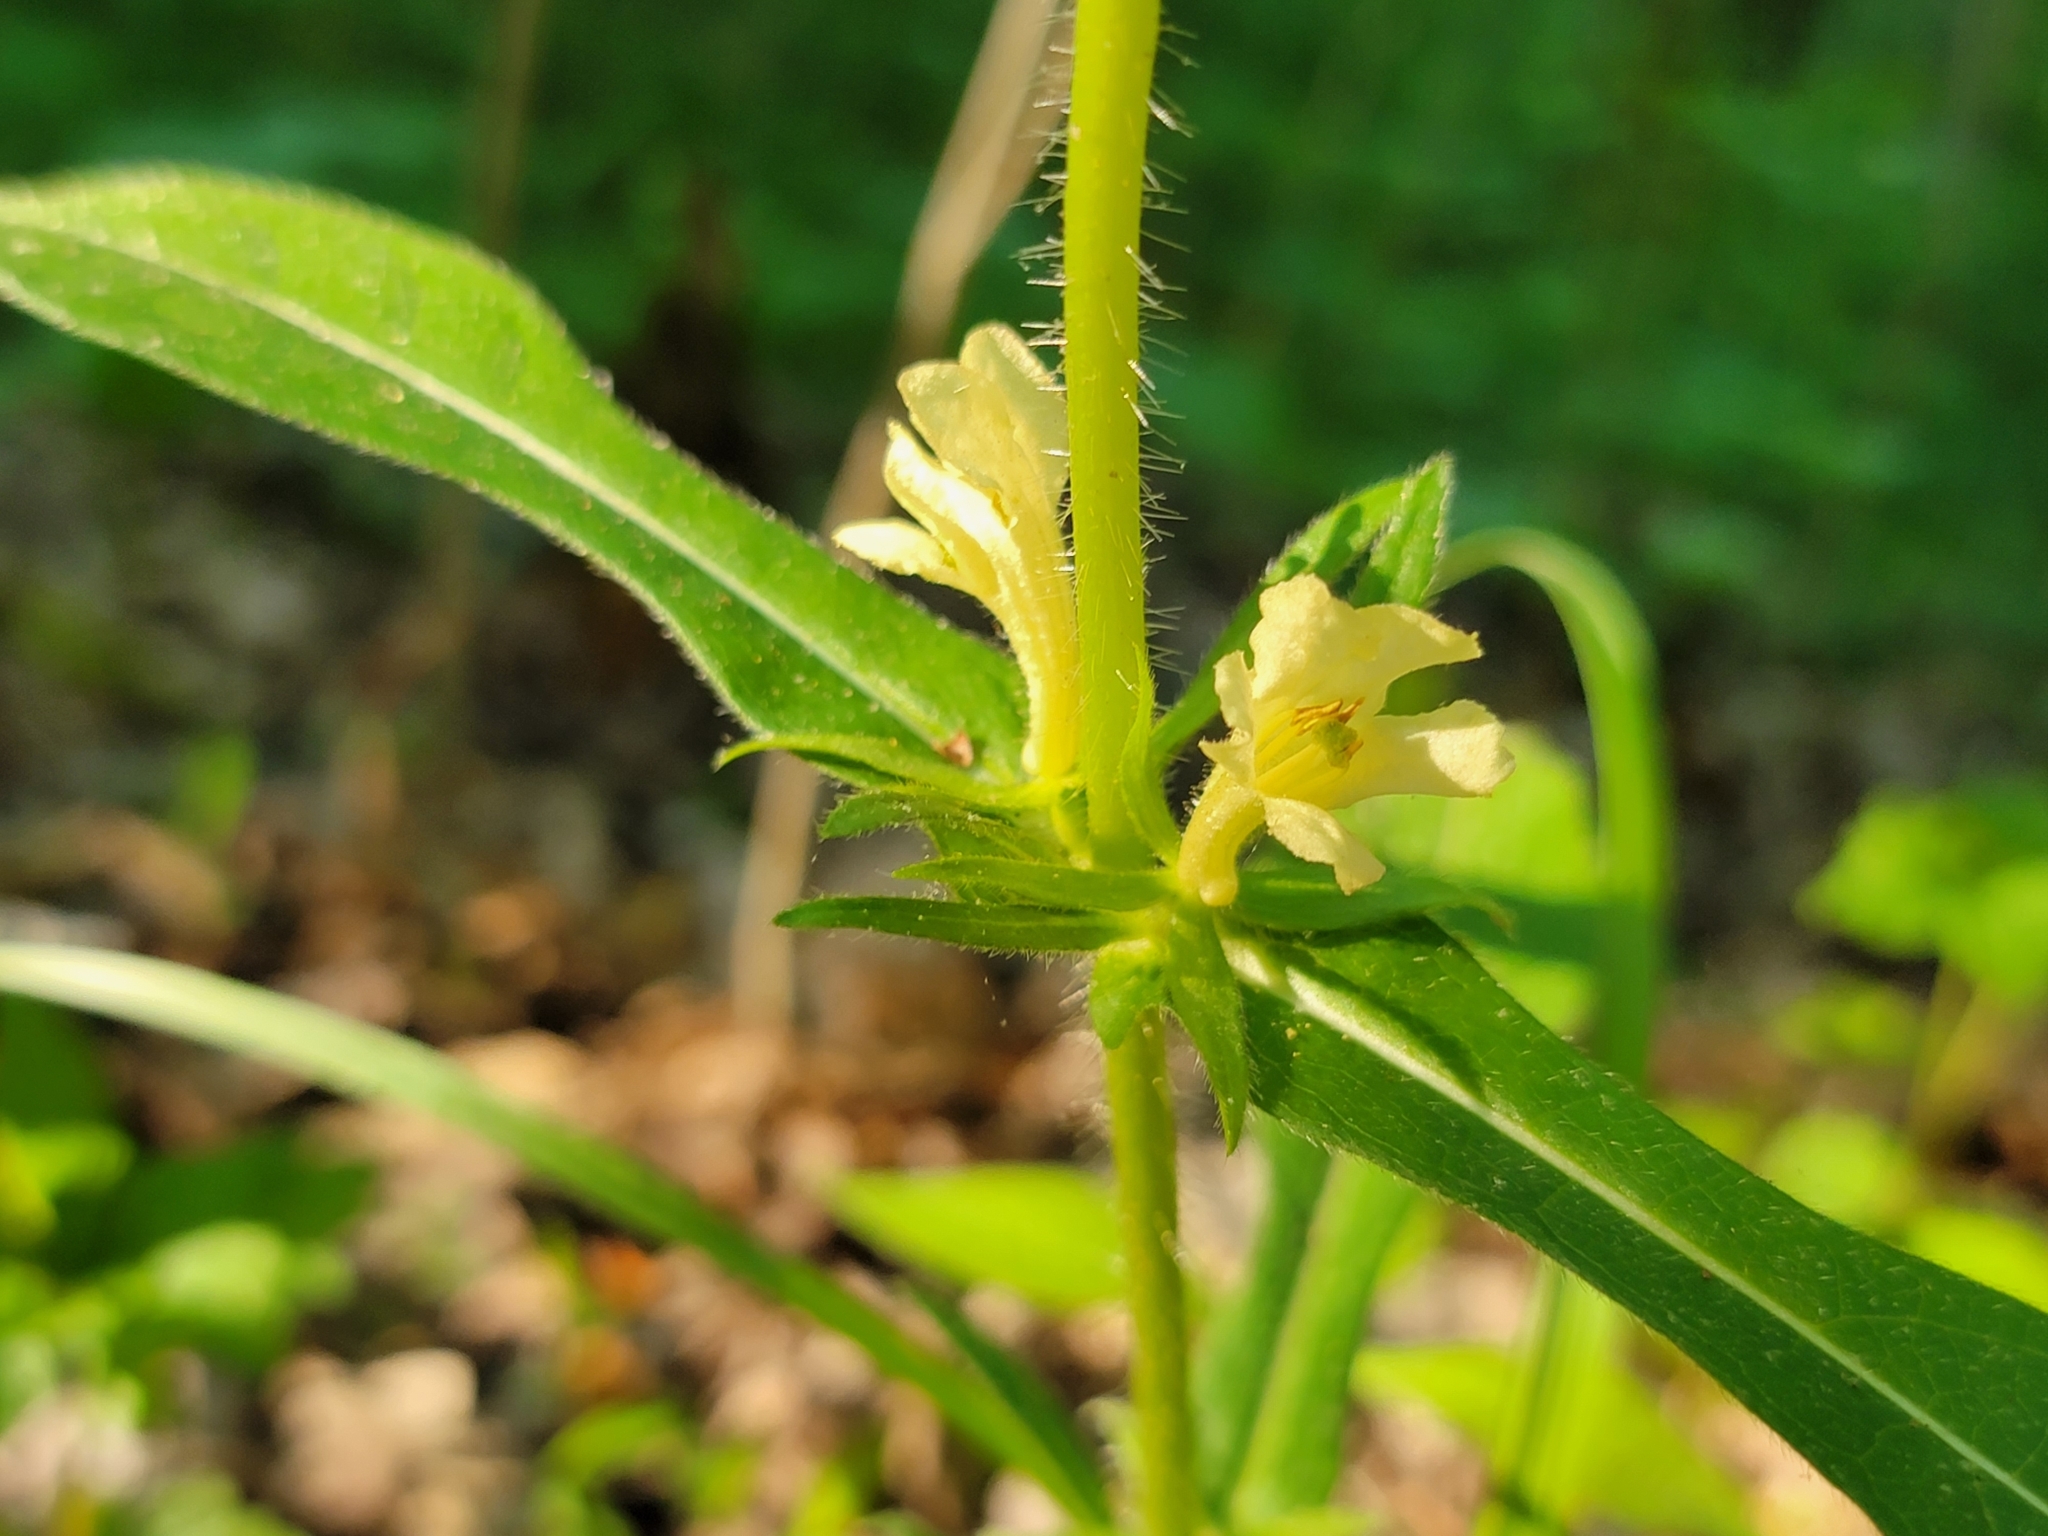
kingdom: Plantae
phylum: Tracheophyta
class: Magnoliopsida
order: Dipsacales
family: Caprifoliaceae
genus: Triosteum
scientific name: Triosteum angustifolium
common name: Narrow-leaved horse-gentian
